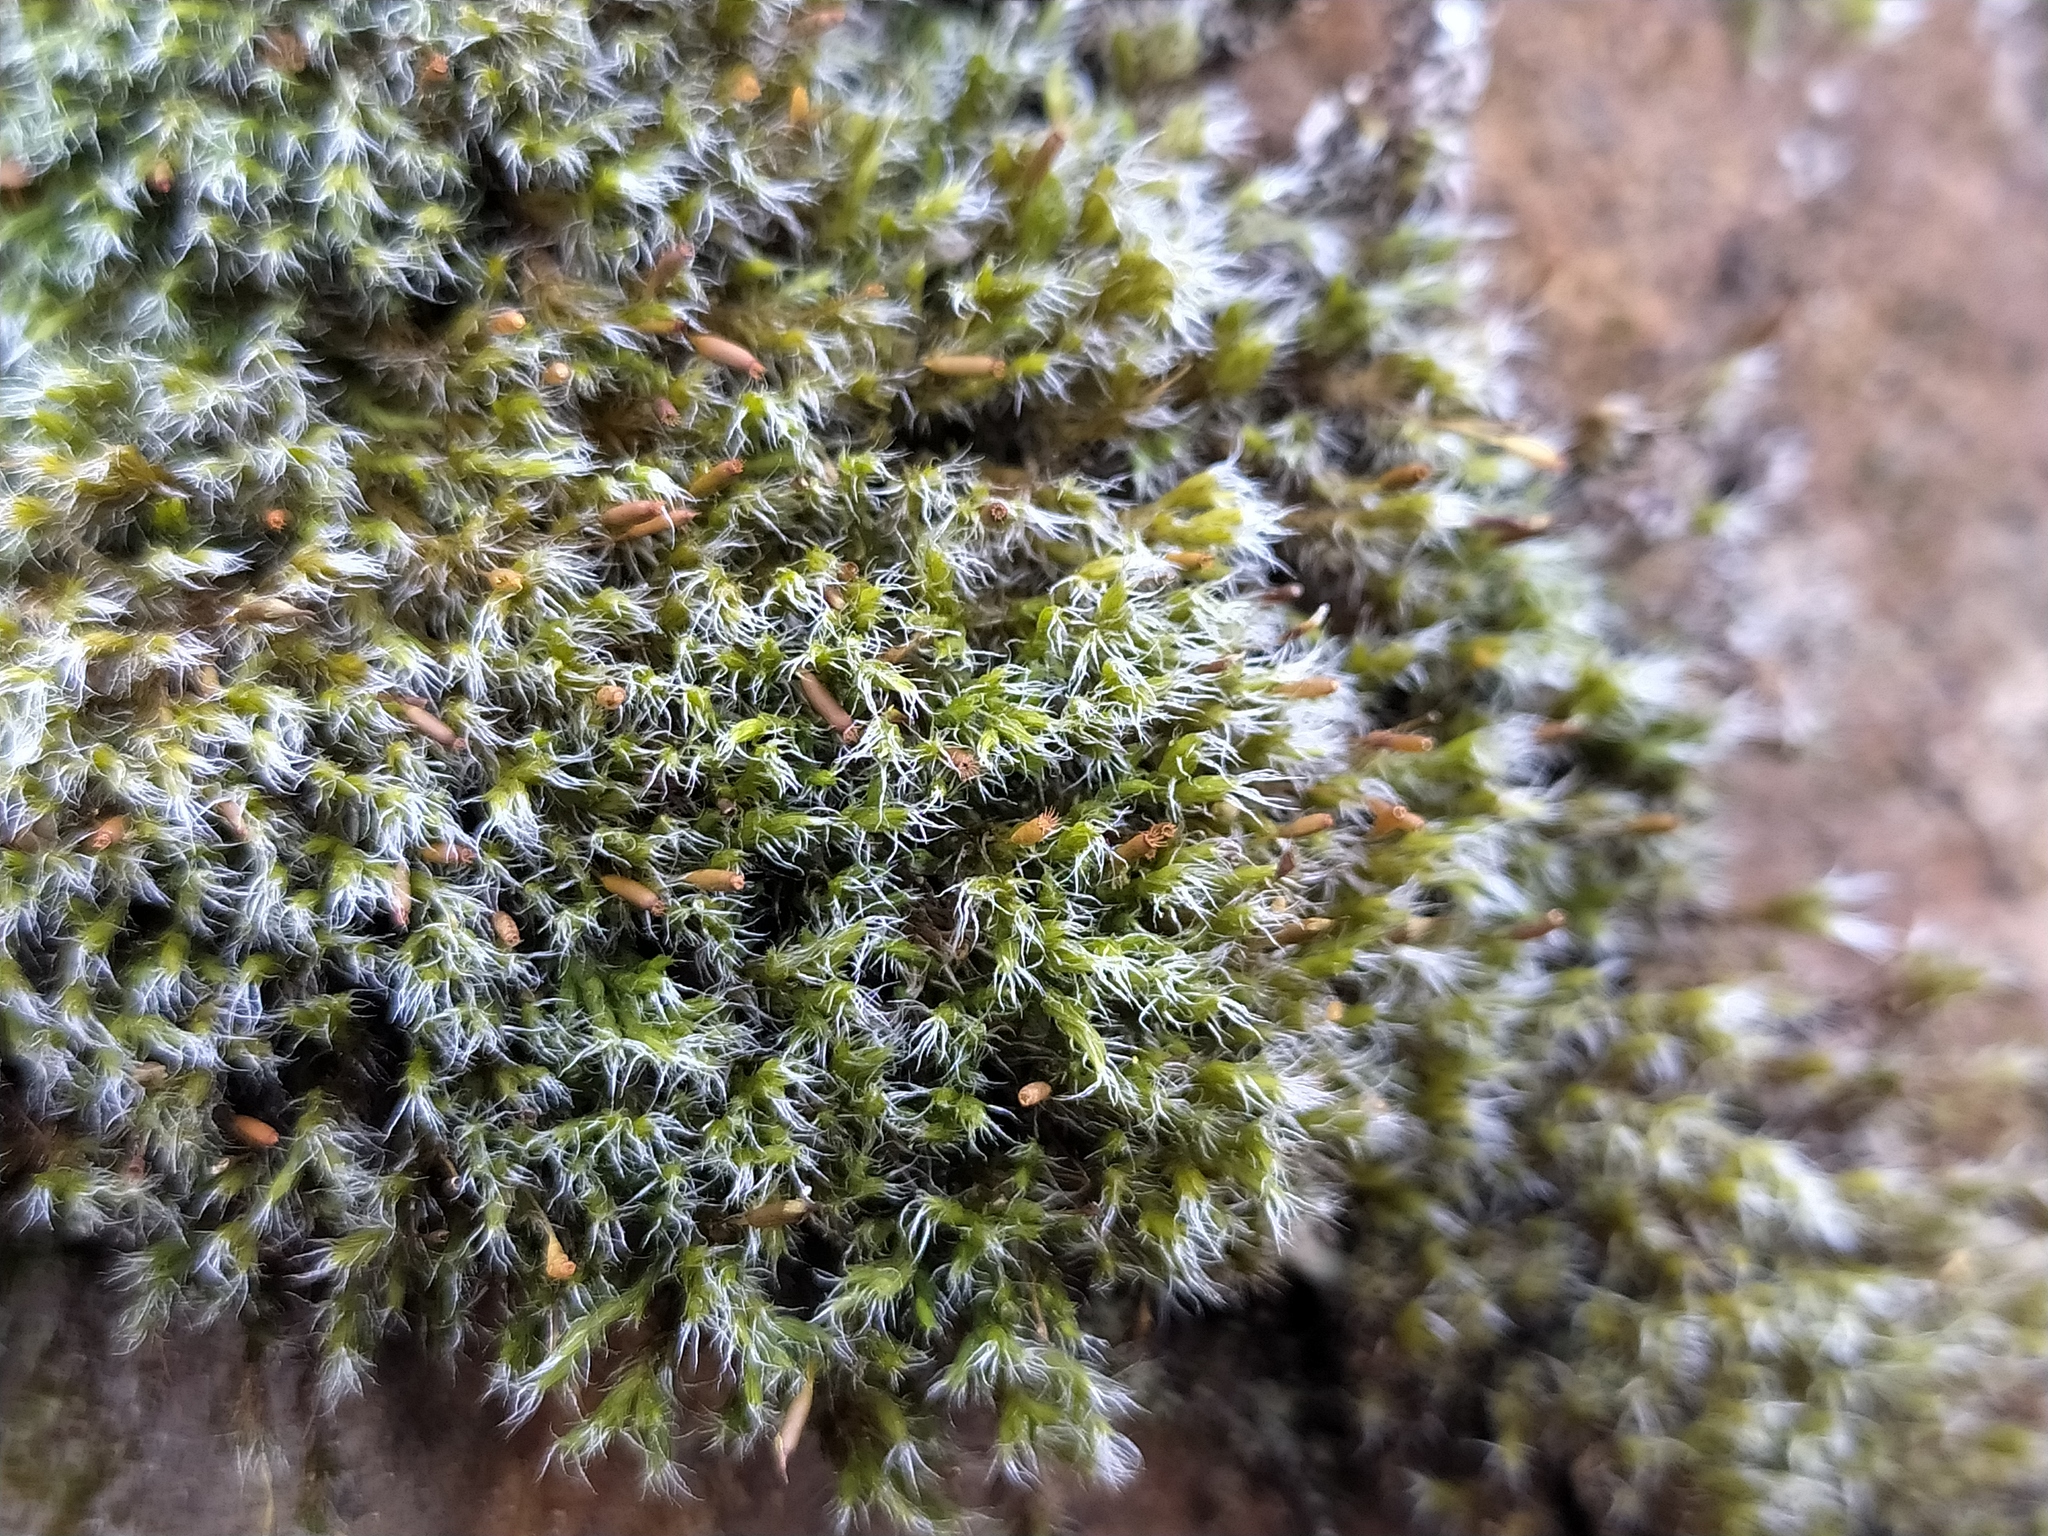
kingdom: Plantae
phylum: Bryophyta
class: Bryopsida
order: Grimmiales
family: Grimmiaceae
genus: Bucklandiella
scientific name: Bucklandiella heterosticha
